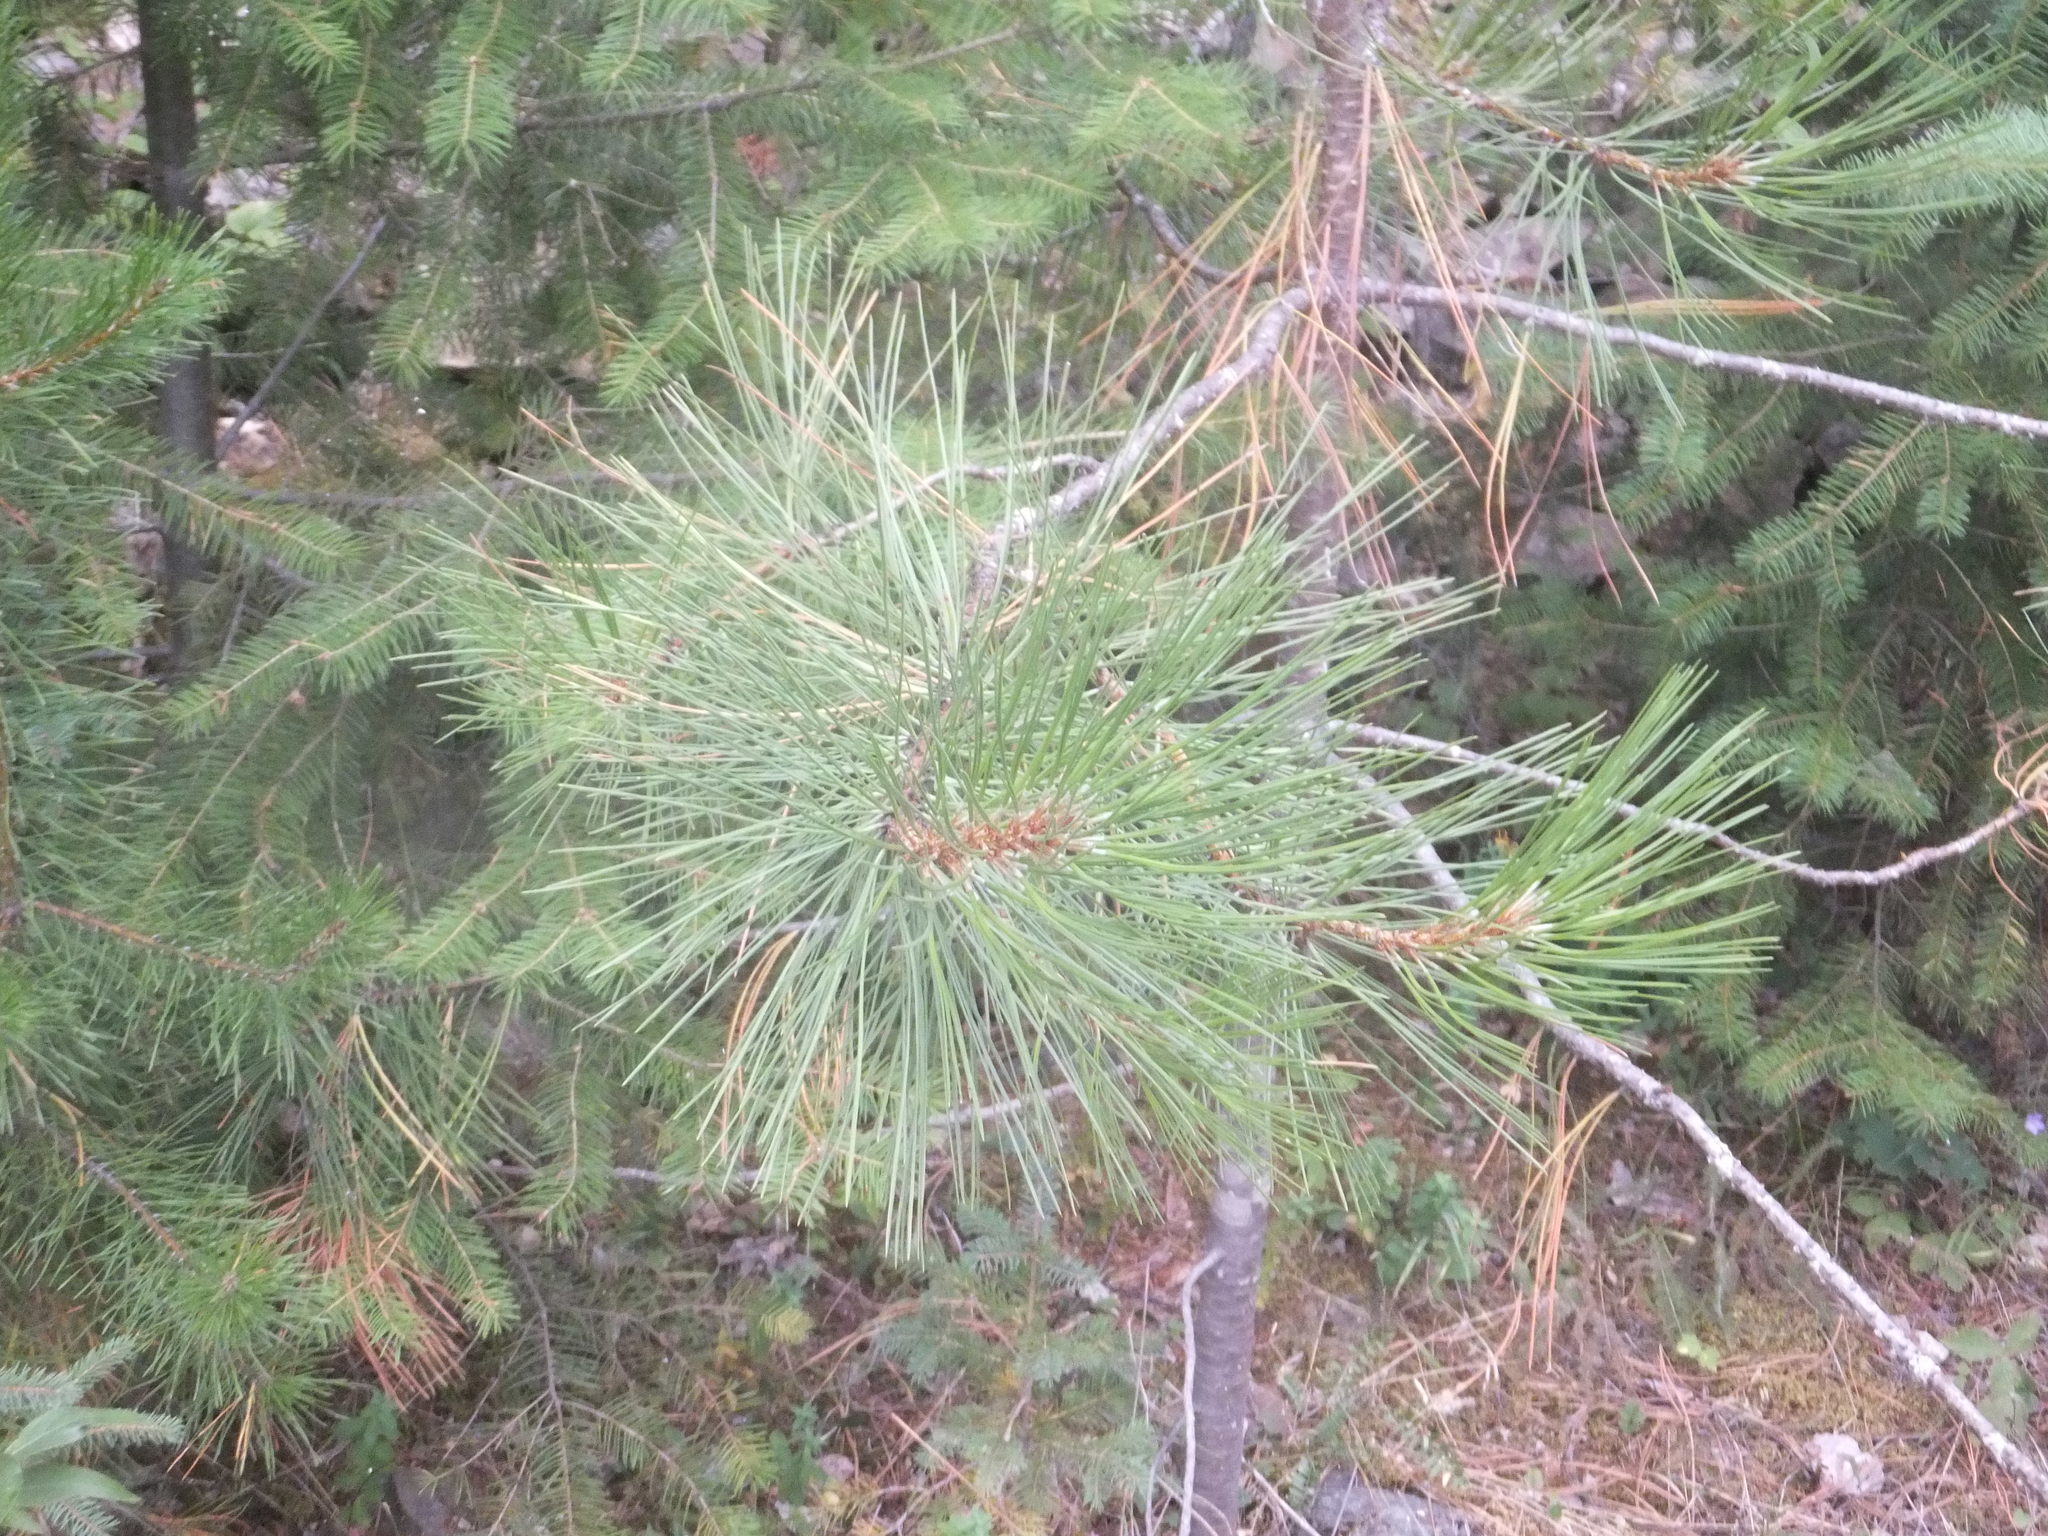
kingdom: Plantae
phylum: Tracheophyta
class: Pinopsida
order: Pinales
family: Pinaceae
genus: Pinus
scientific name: Pinus ponderosa
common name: Western yellow-pine
